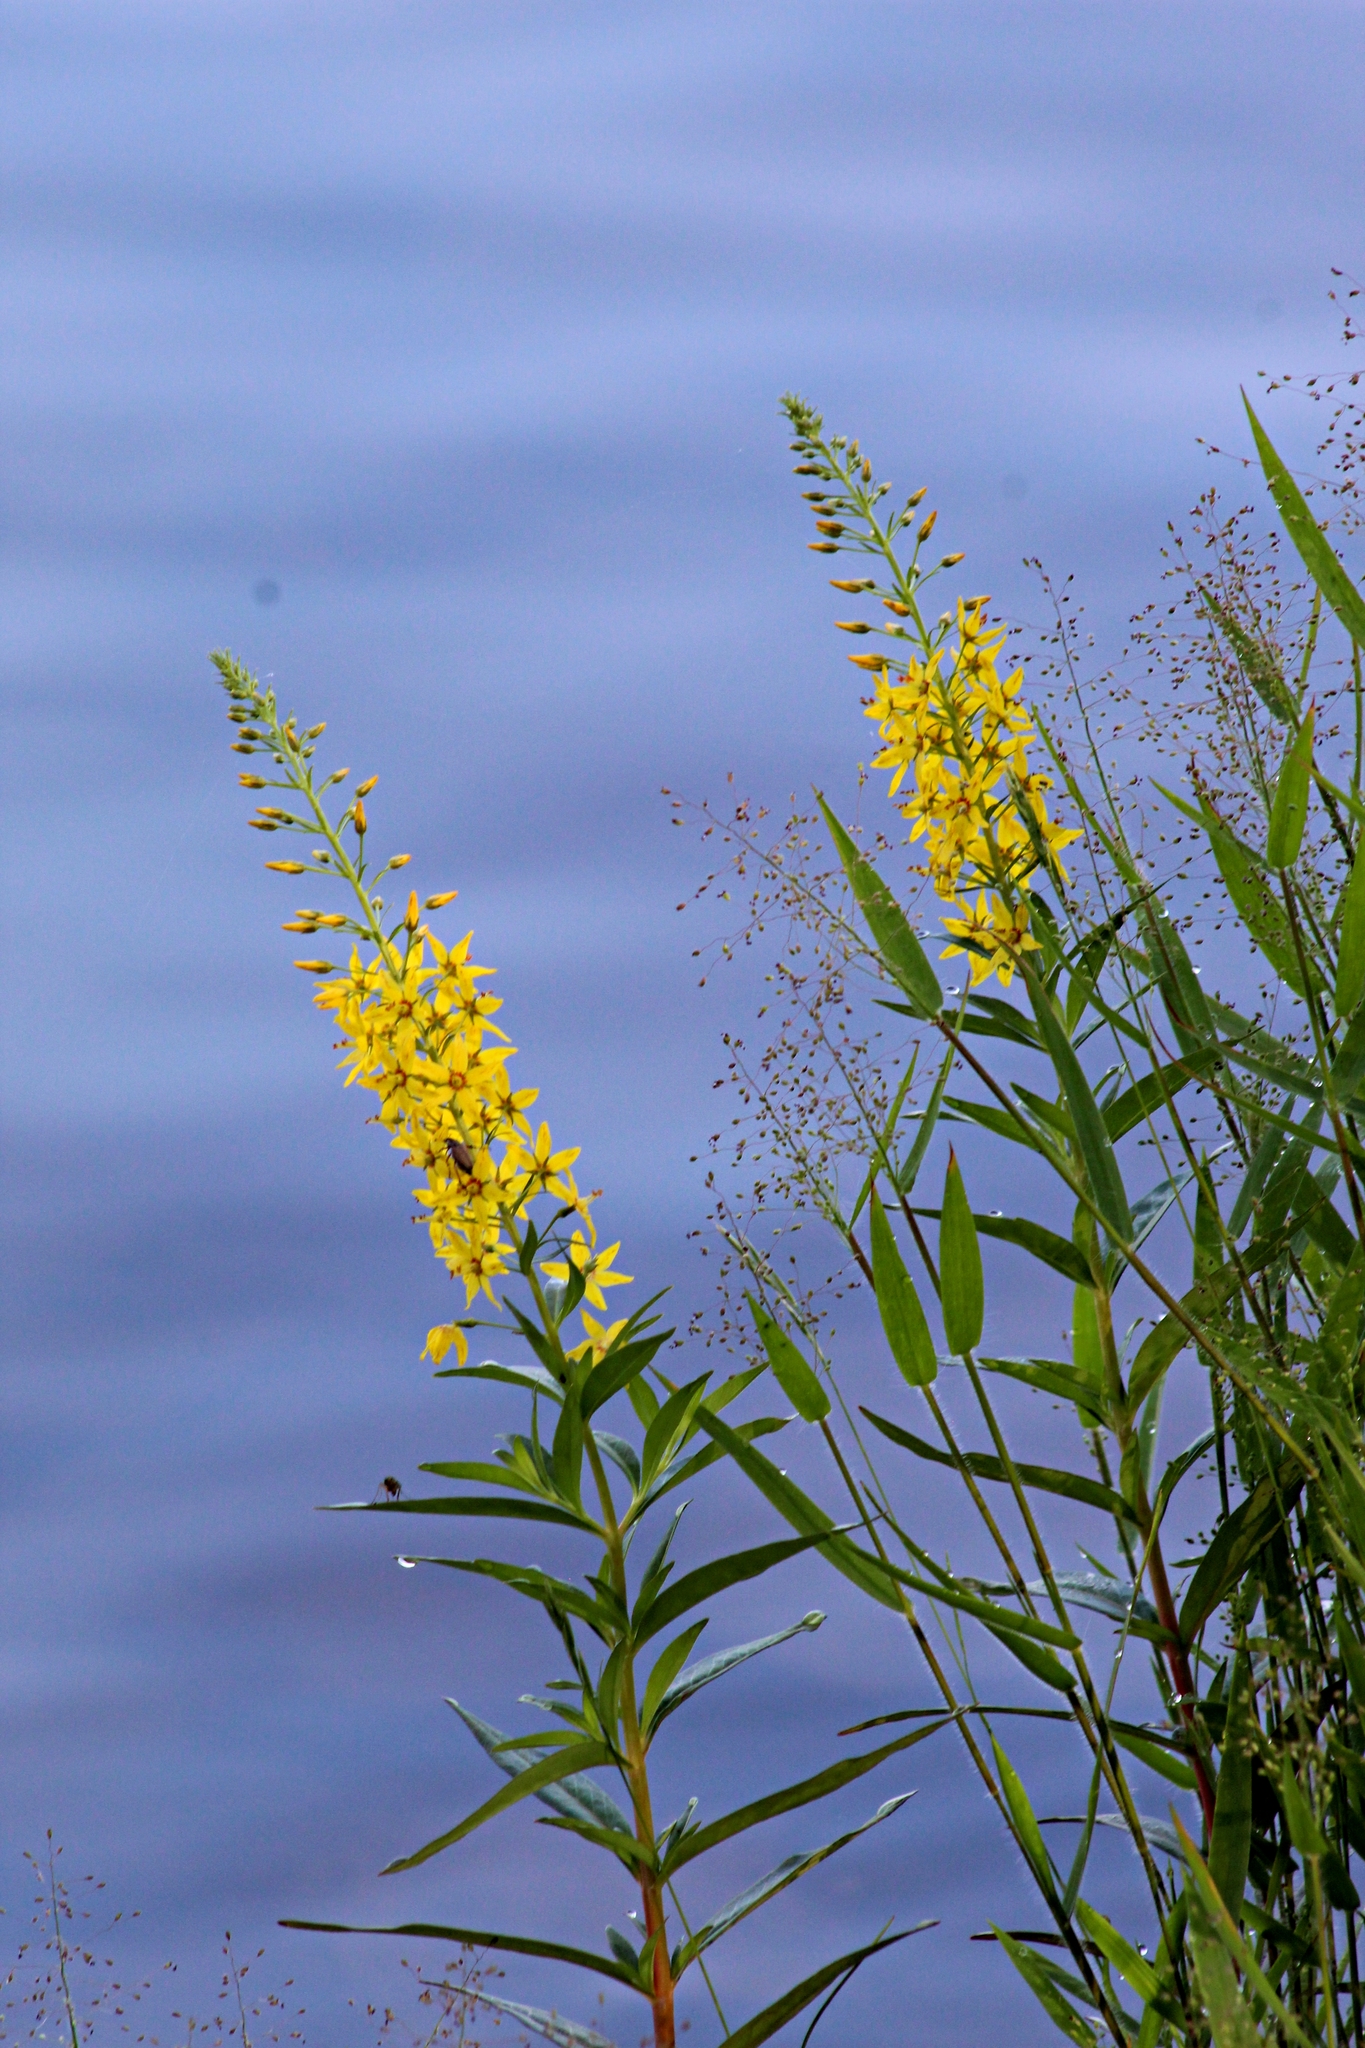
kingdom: Plantae
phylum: Tracheophyta
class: Magnoliopsida
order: Ericales
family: Primulaceae
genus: Lysimachia
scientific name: Lysimachia terrestris
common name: Lake loosestrife
